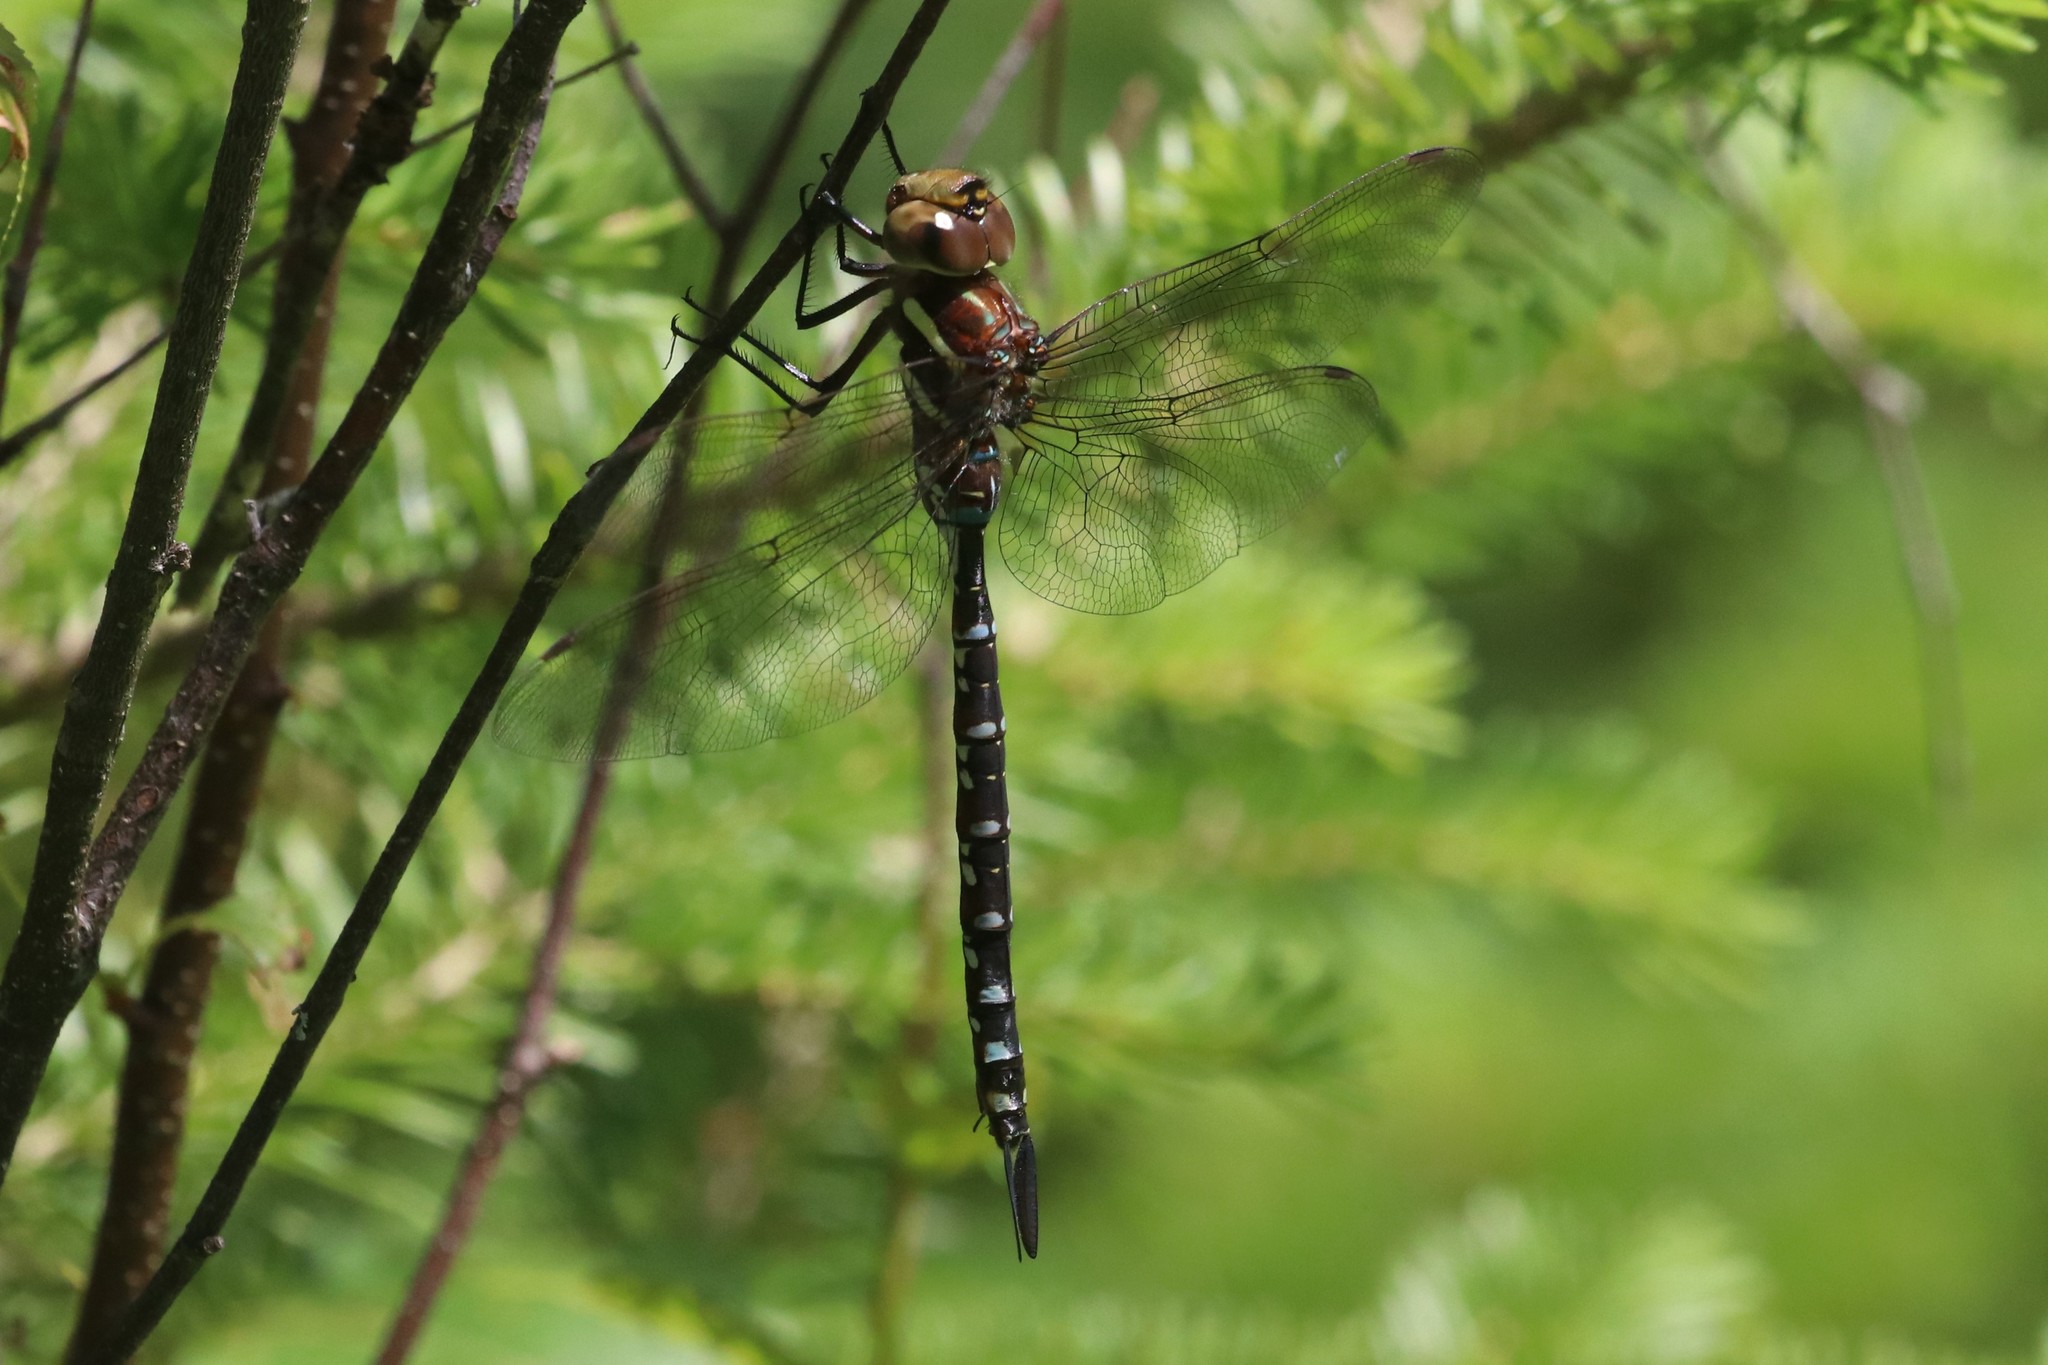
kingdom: Animalia
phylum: Arthropoda
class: Insecta
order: Odonata
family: Aeshnidae
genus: Aeshna
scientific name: Aeshna tuberculifera
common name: Aeschne à tubercules
